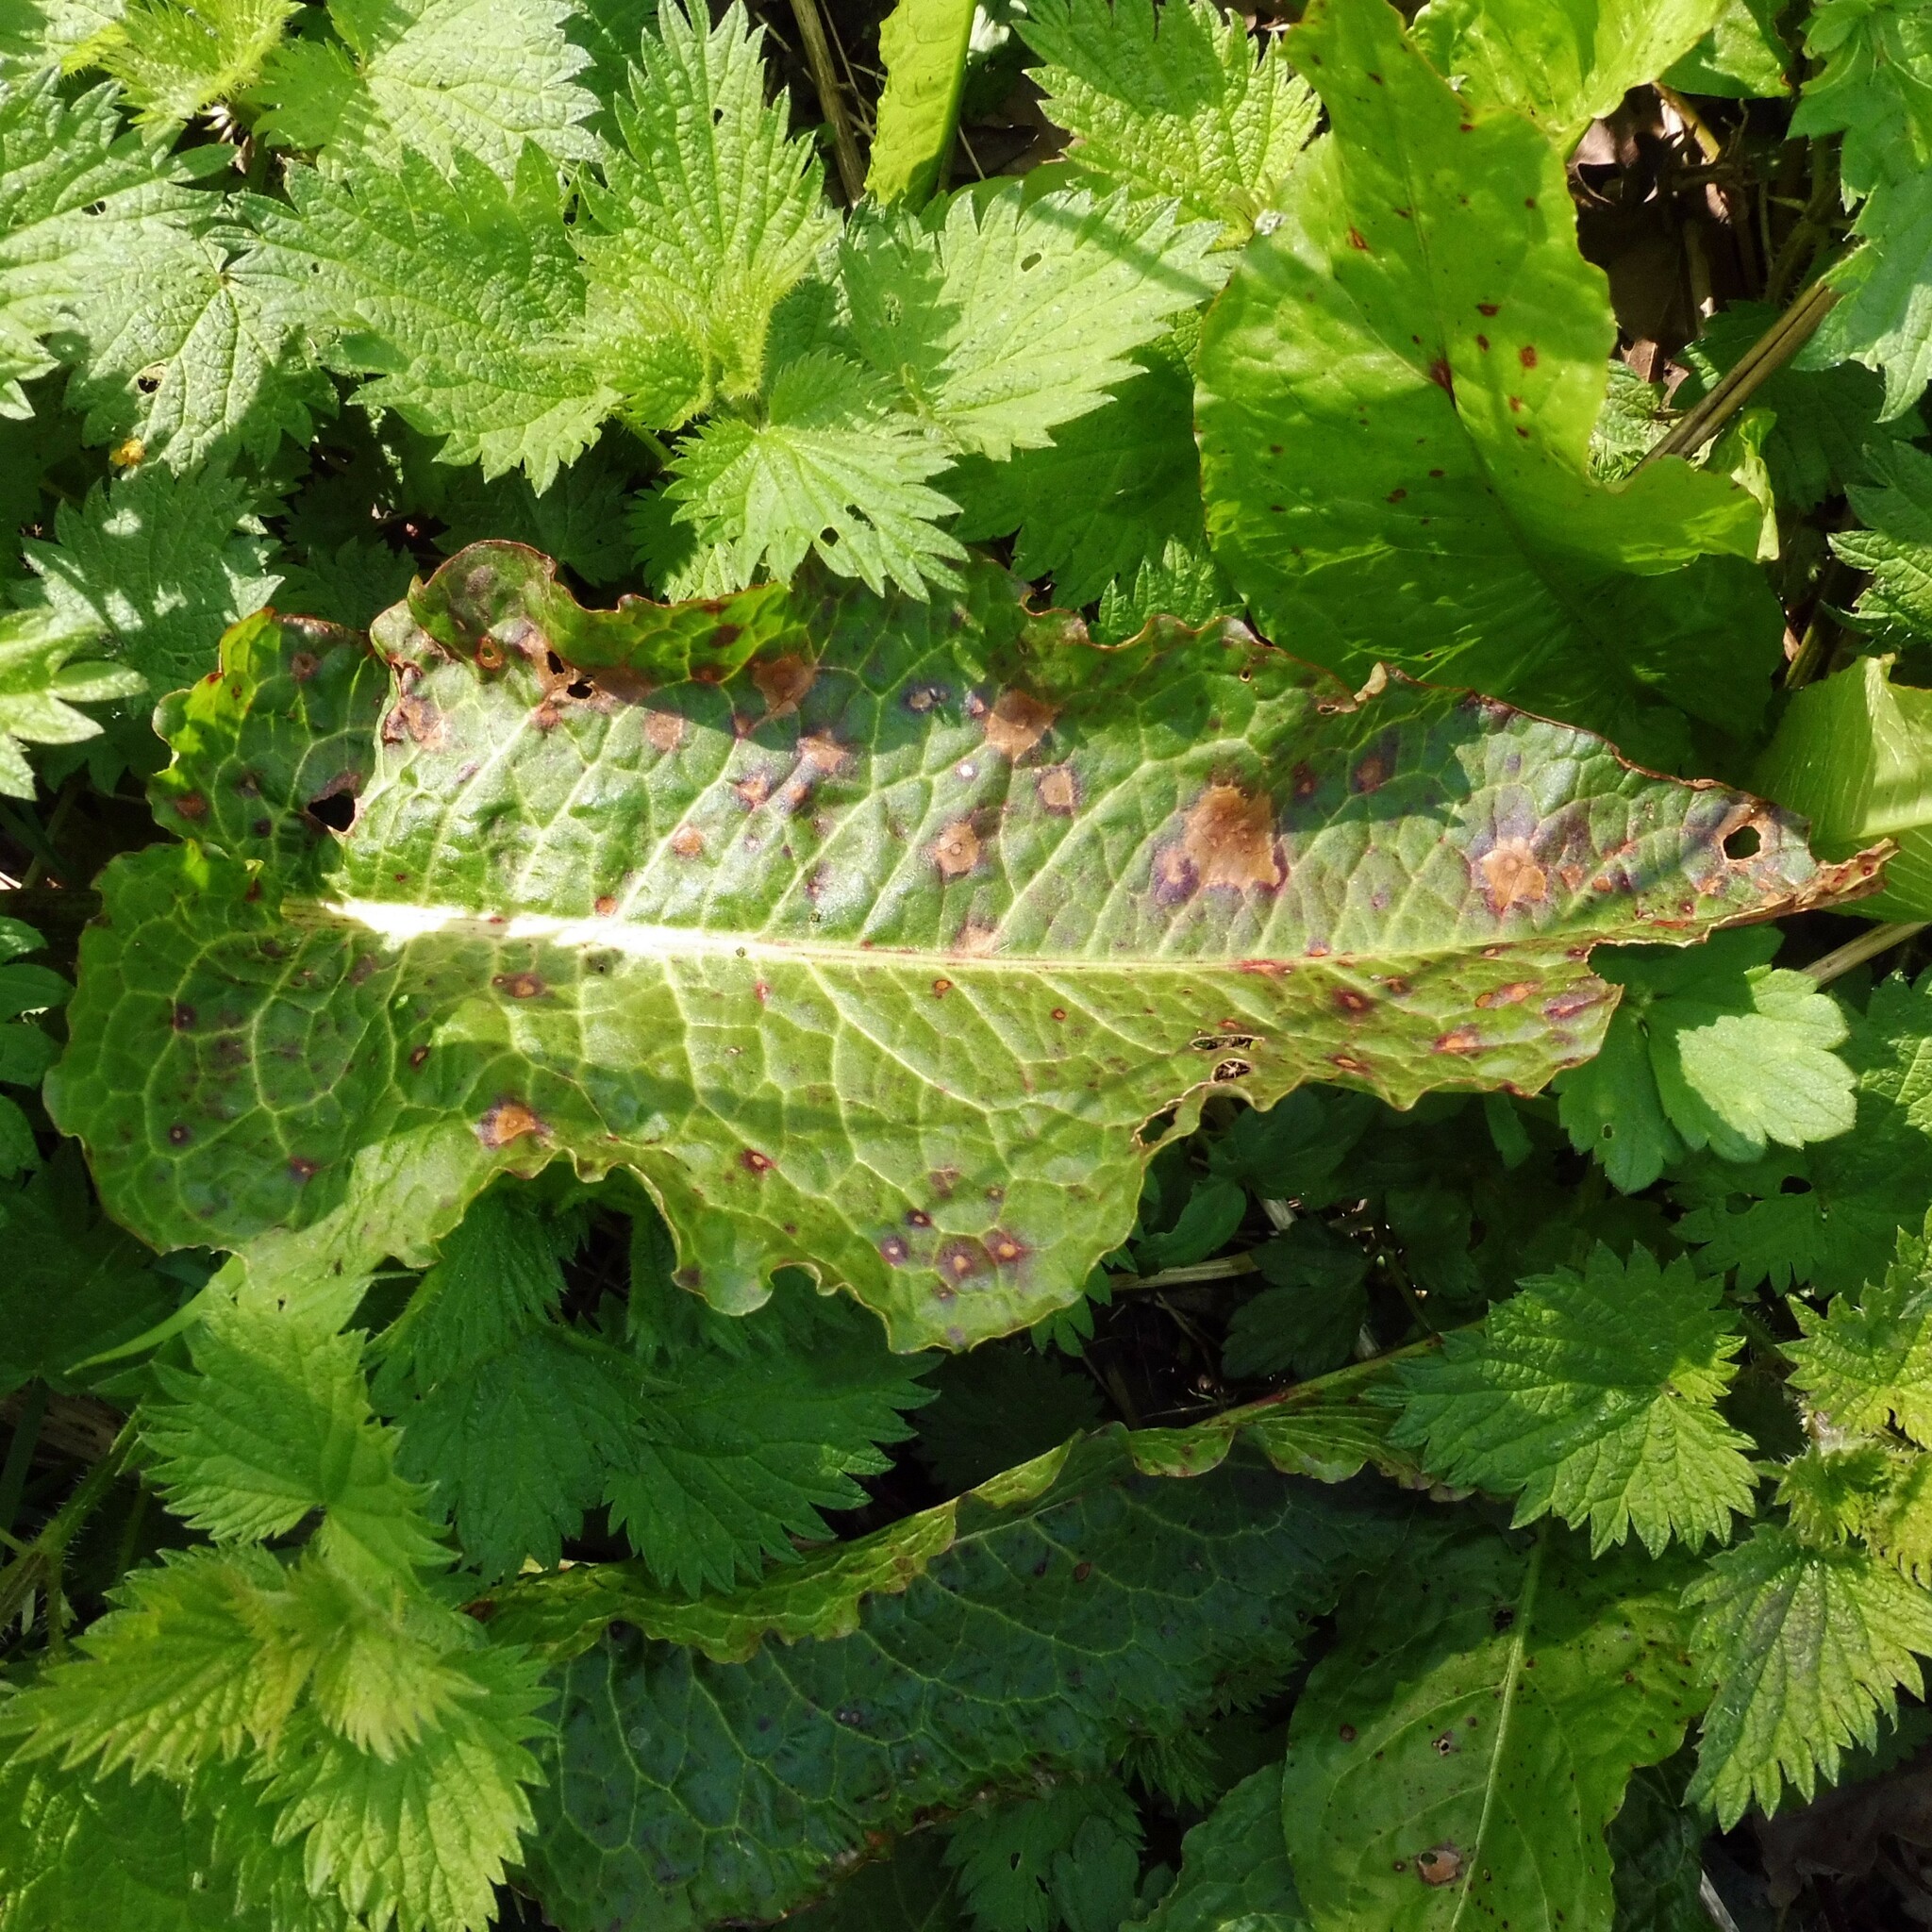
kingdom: Fungi
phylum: Ascomycota
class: Dothideomycetes
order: Mycosphaerellales
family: Mycosphaerellaceae
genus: Ramularia
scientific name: Ramularia rubella
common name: Red dock spot
